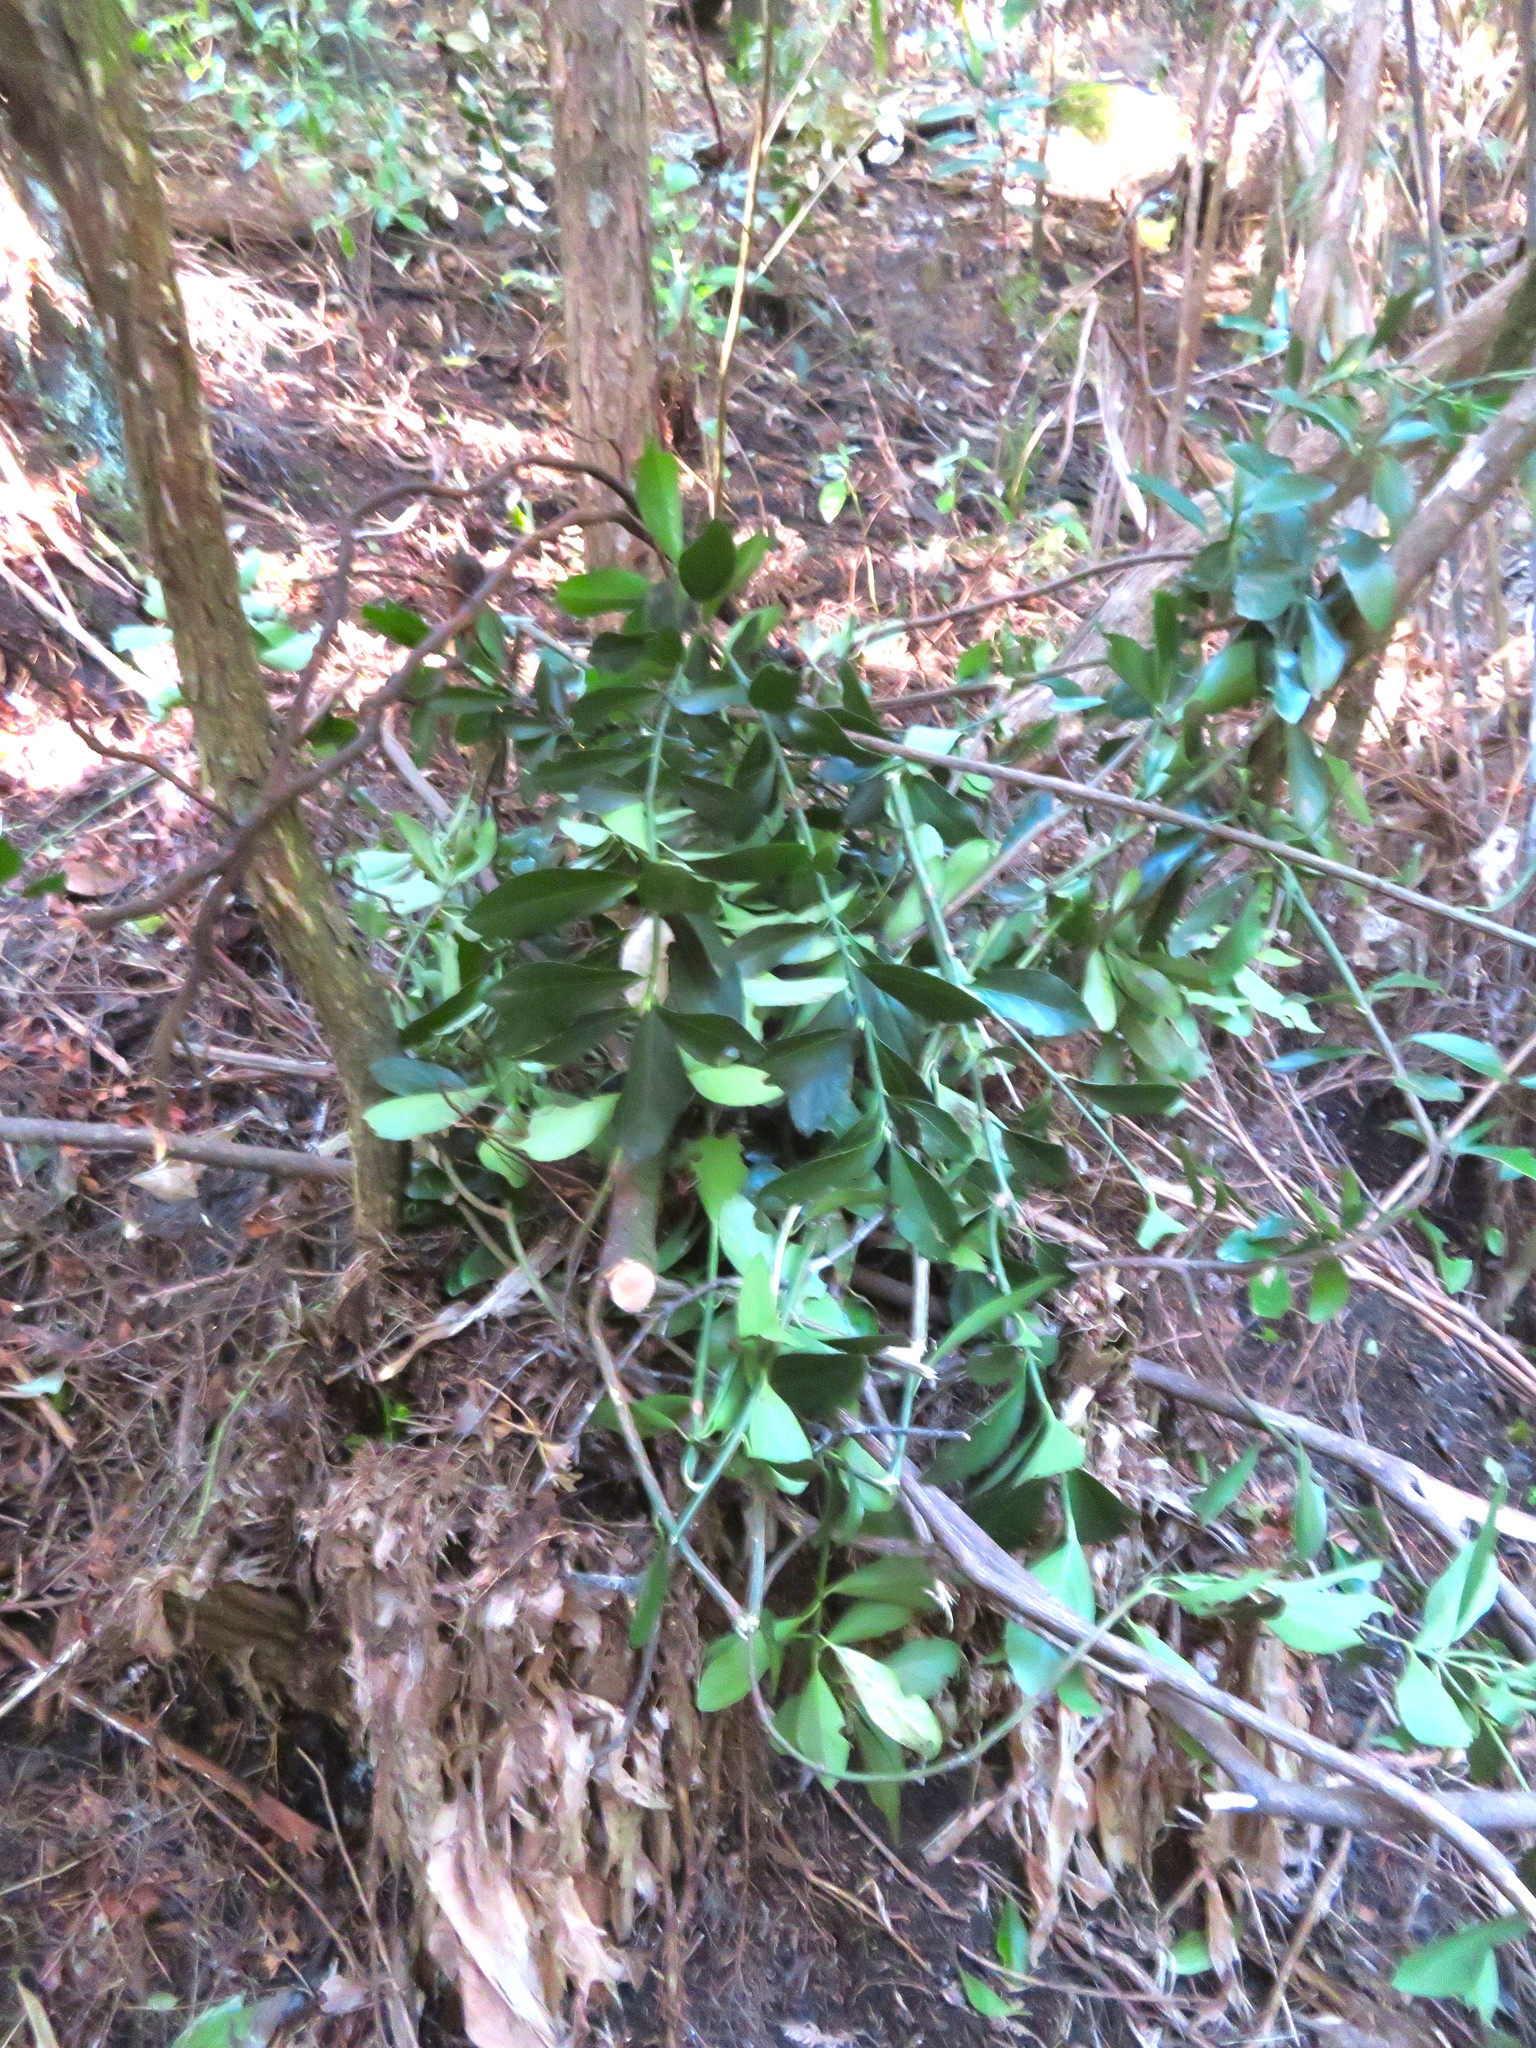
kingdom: Plantae
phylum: Tracheophyta
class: Magnoliopsida
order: Celastrales
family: Celastraceae
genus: Euonymus
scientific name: Euonymus japonicus
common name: Japanese spindletree
